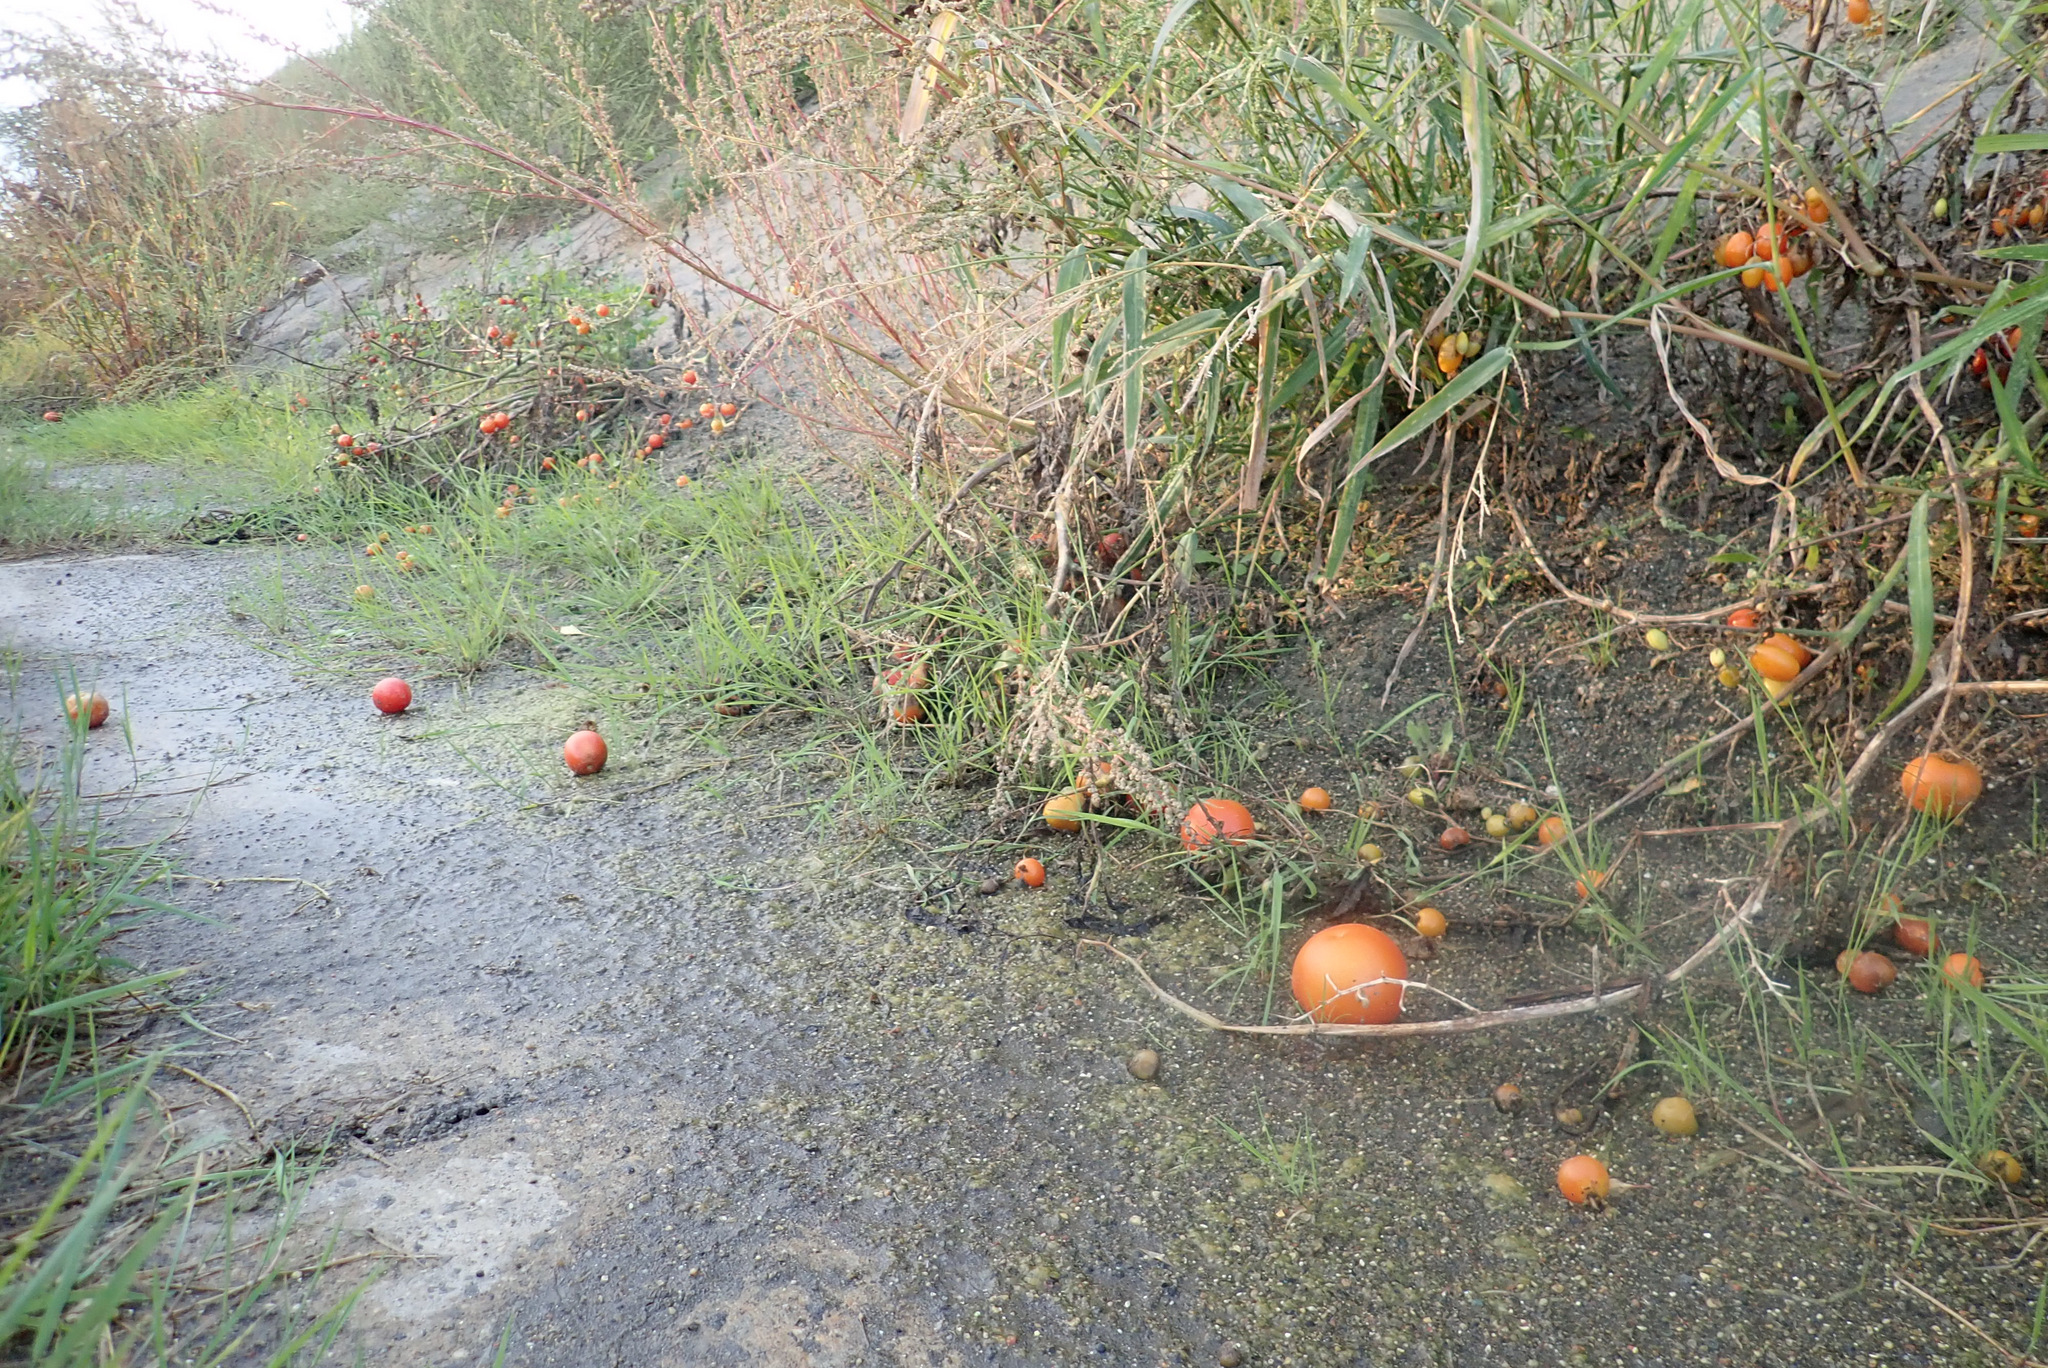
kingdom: Plantae
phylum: Tracheophyta
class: Magnoliopsida
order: Solanales
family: Solanaceae
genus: Solanum
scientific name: Solanum lycopersicum
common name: Garden tomato
